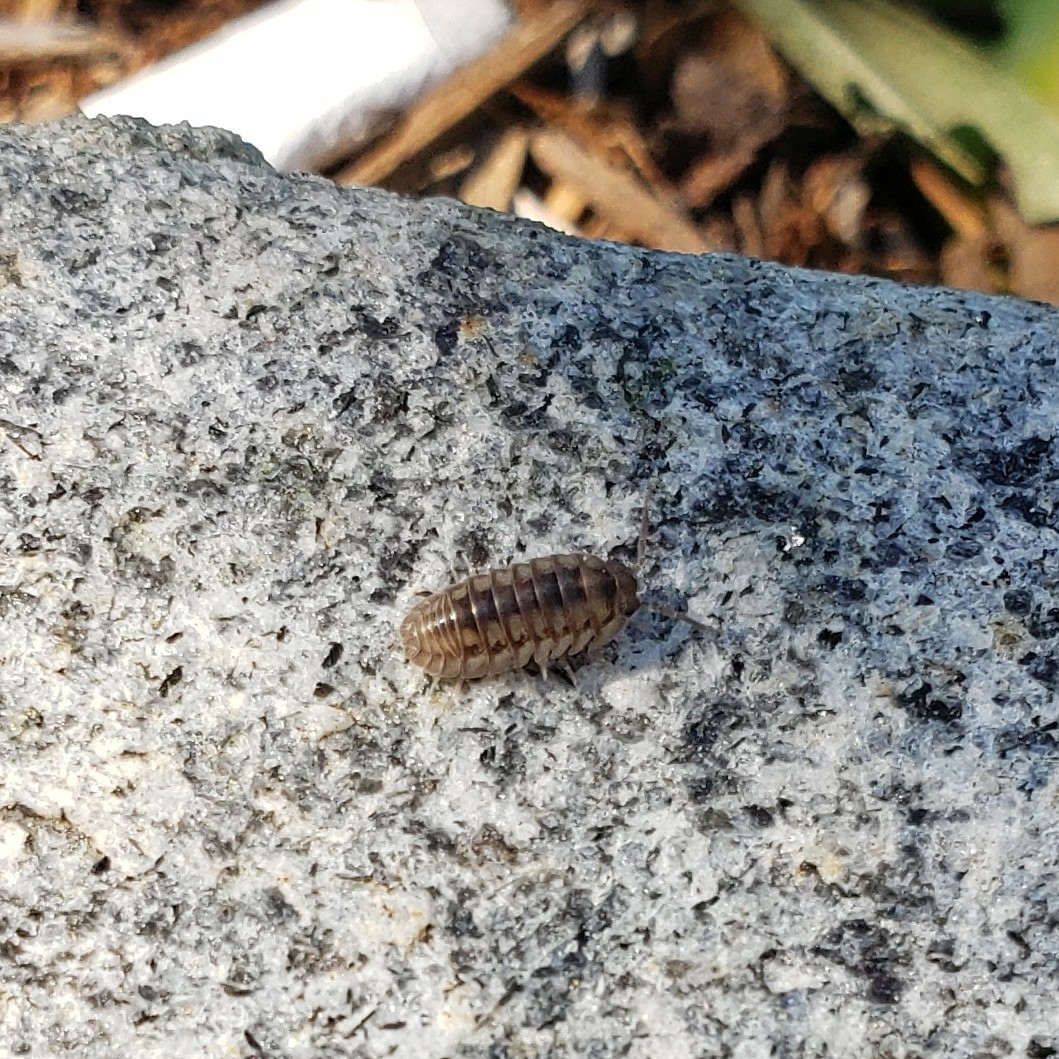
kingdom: Animalia
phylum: Arthropoda
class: Malacostraca
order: Isopoda
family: Armadillidiidae
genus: Armadillidium
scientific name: Armadillidium nasatum
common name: Isopod
